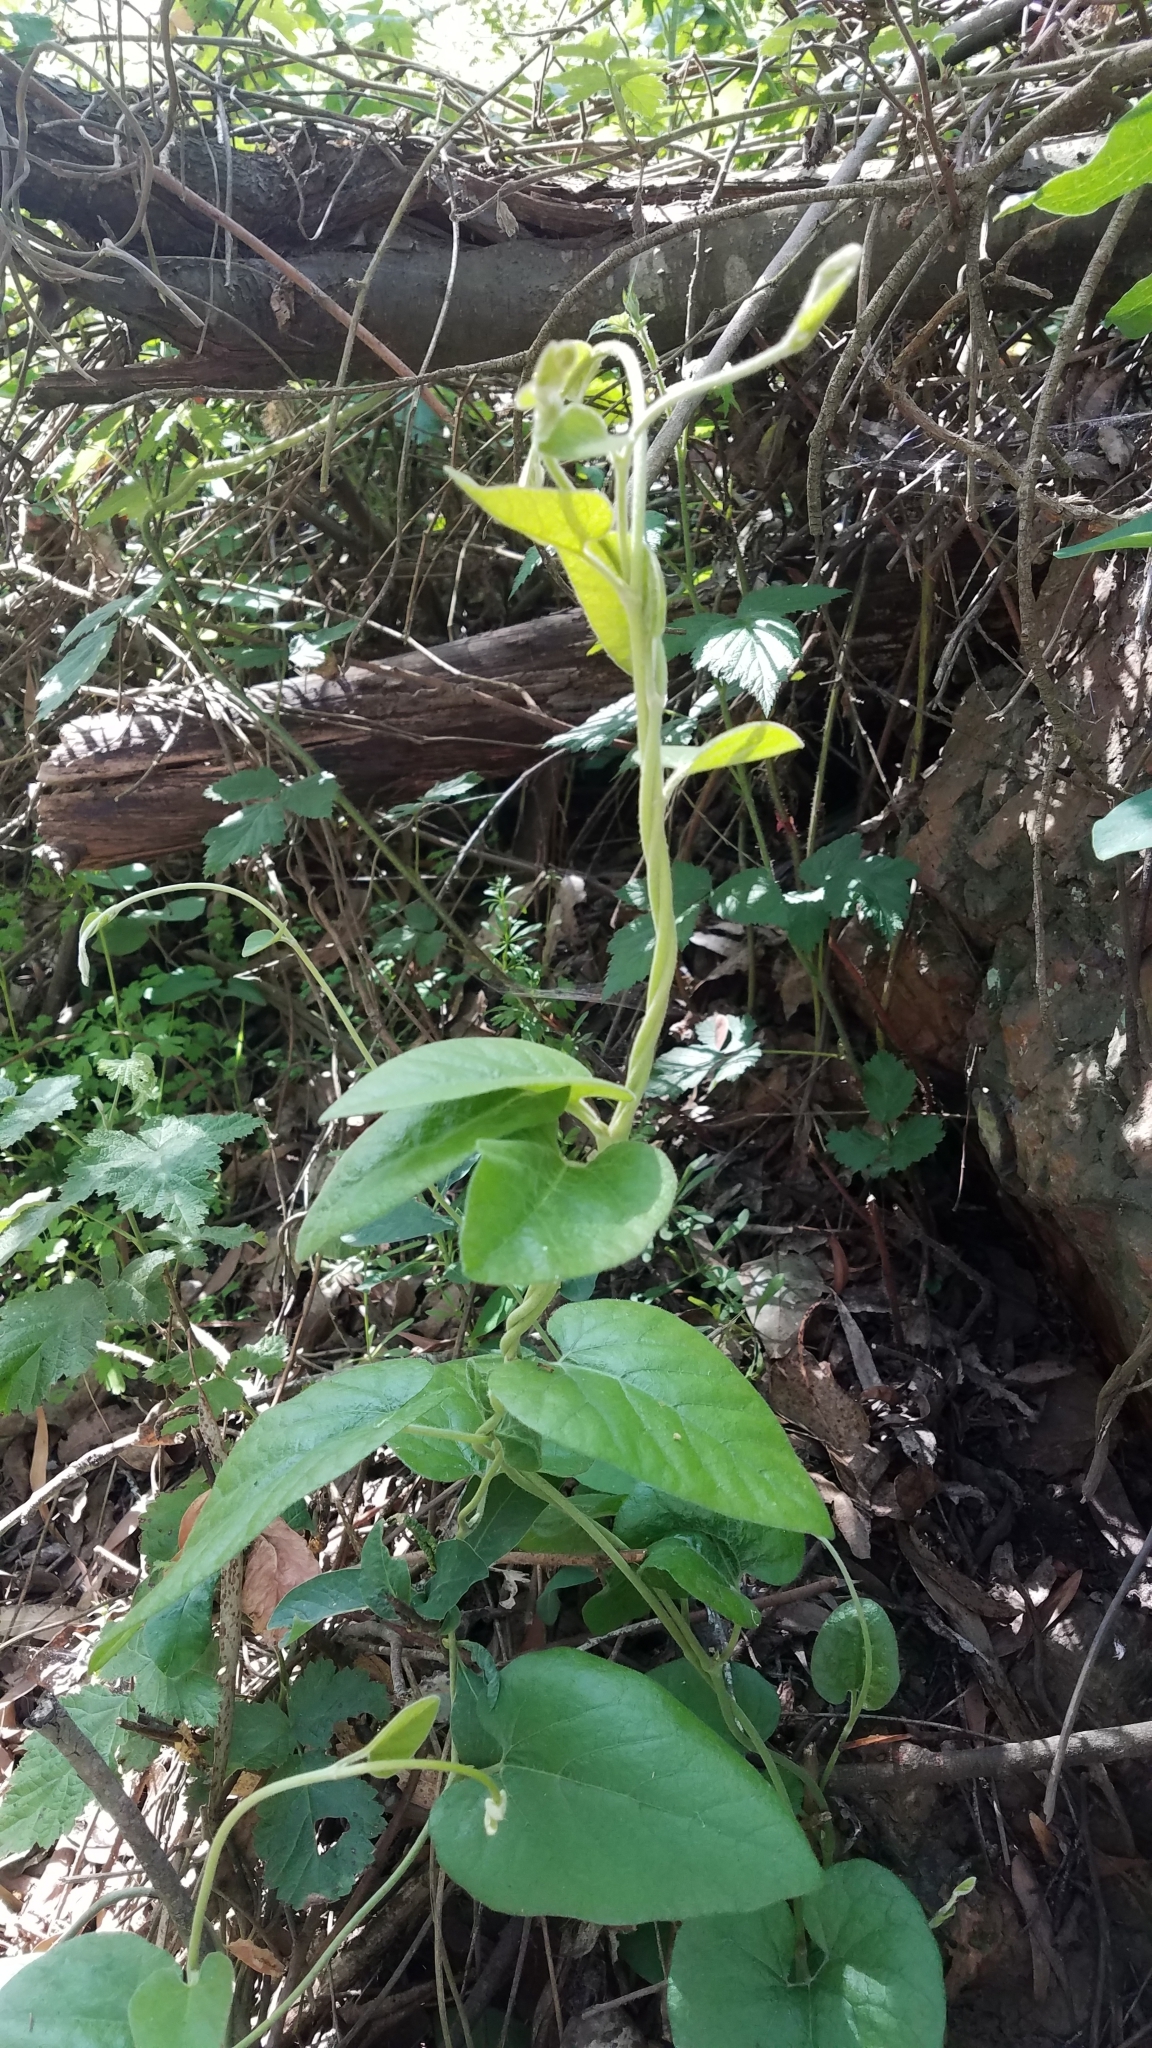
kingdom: Plantae
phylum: Tracheophyta
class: Magnoliopsida
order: Piperales
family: Aristolochiaceae
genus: Isotrema
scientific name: Isotrema californicum
